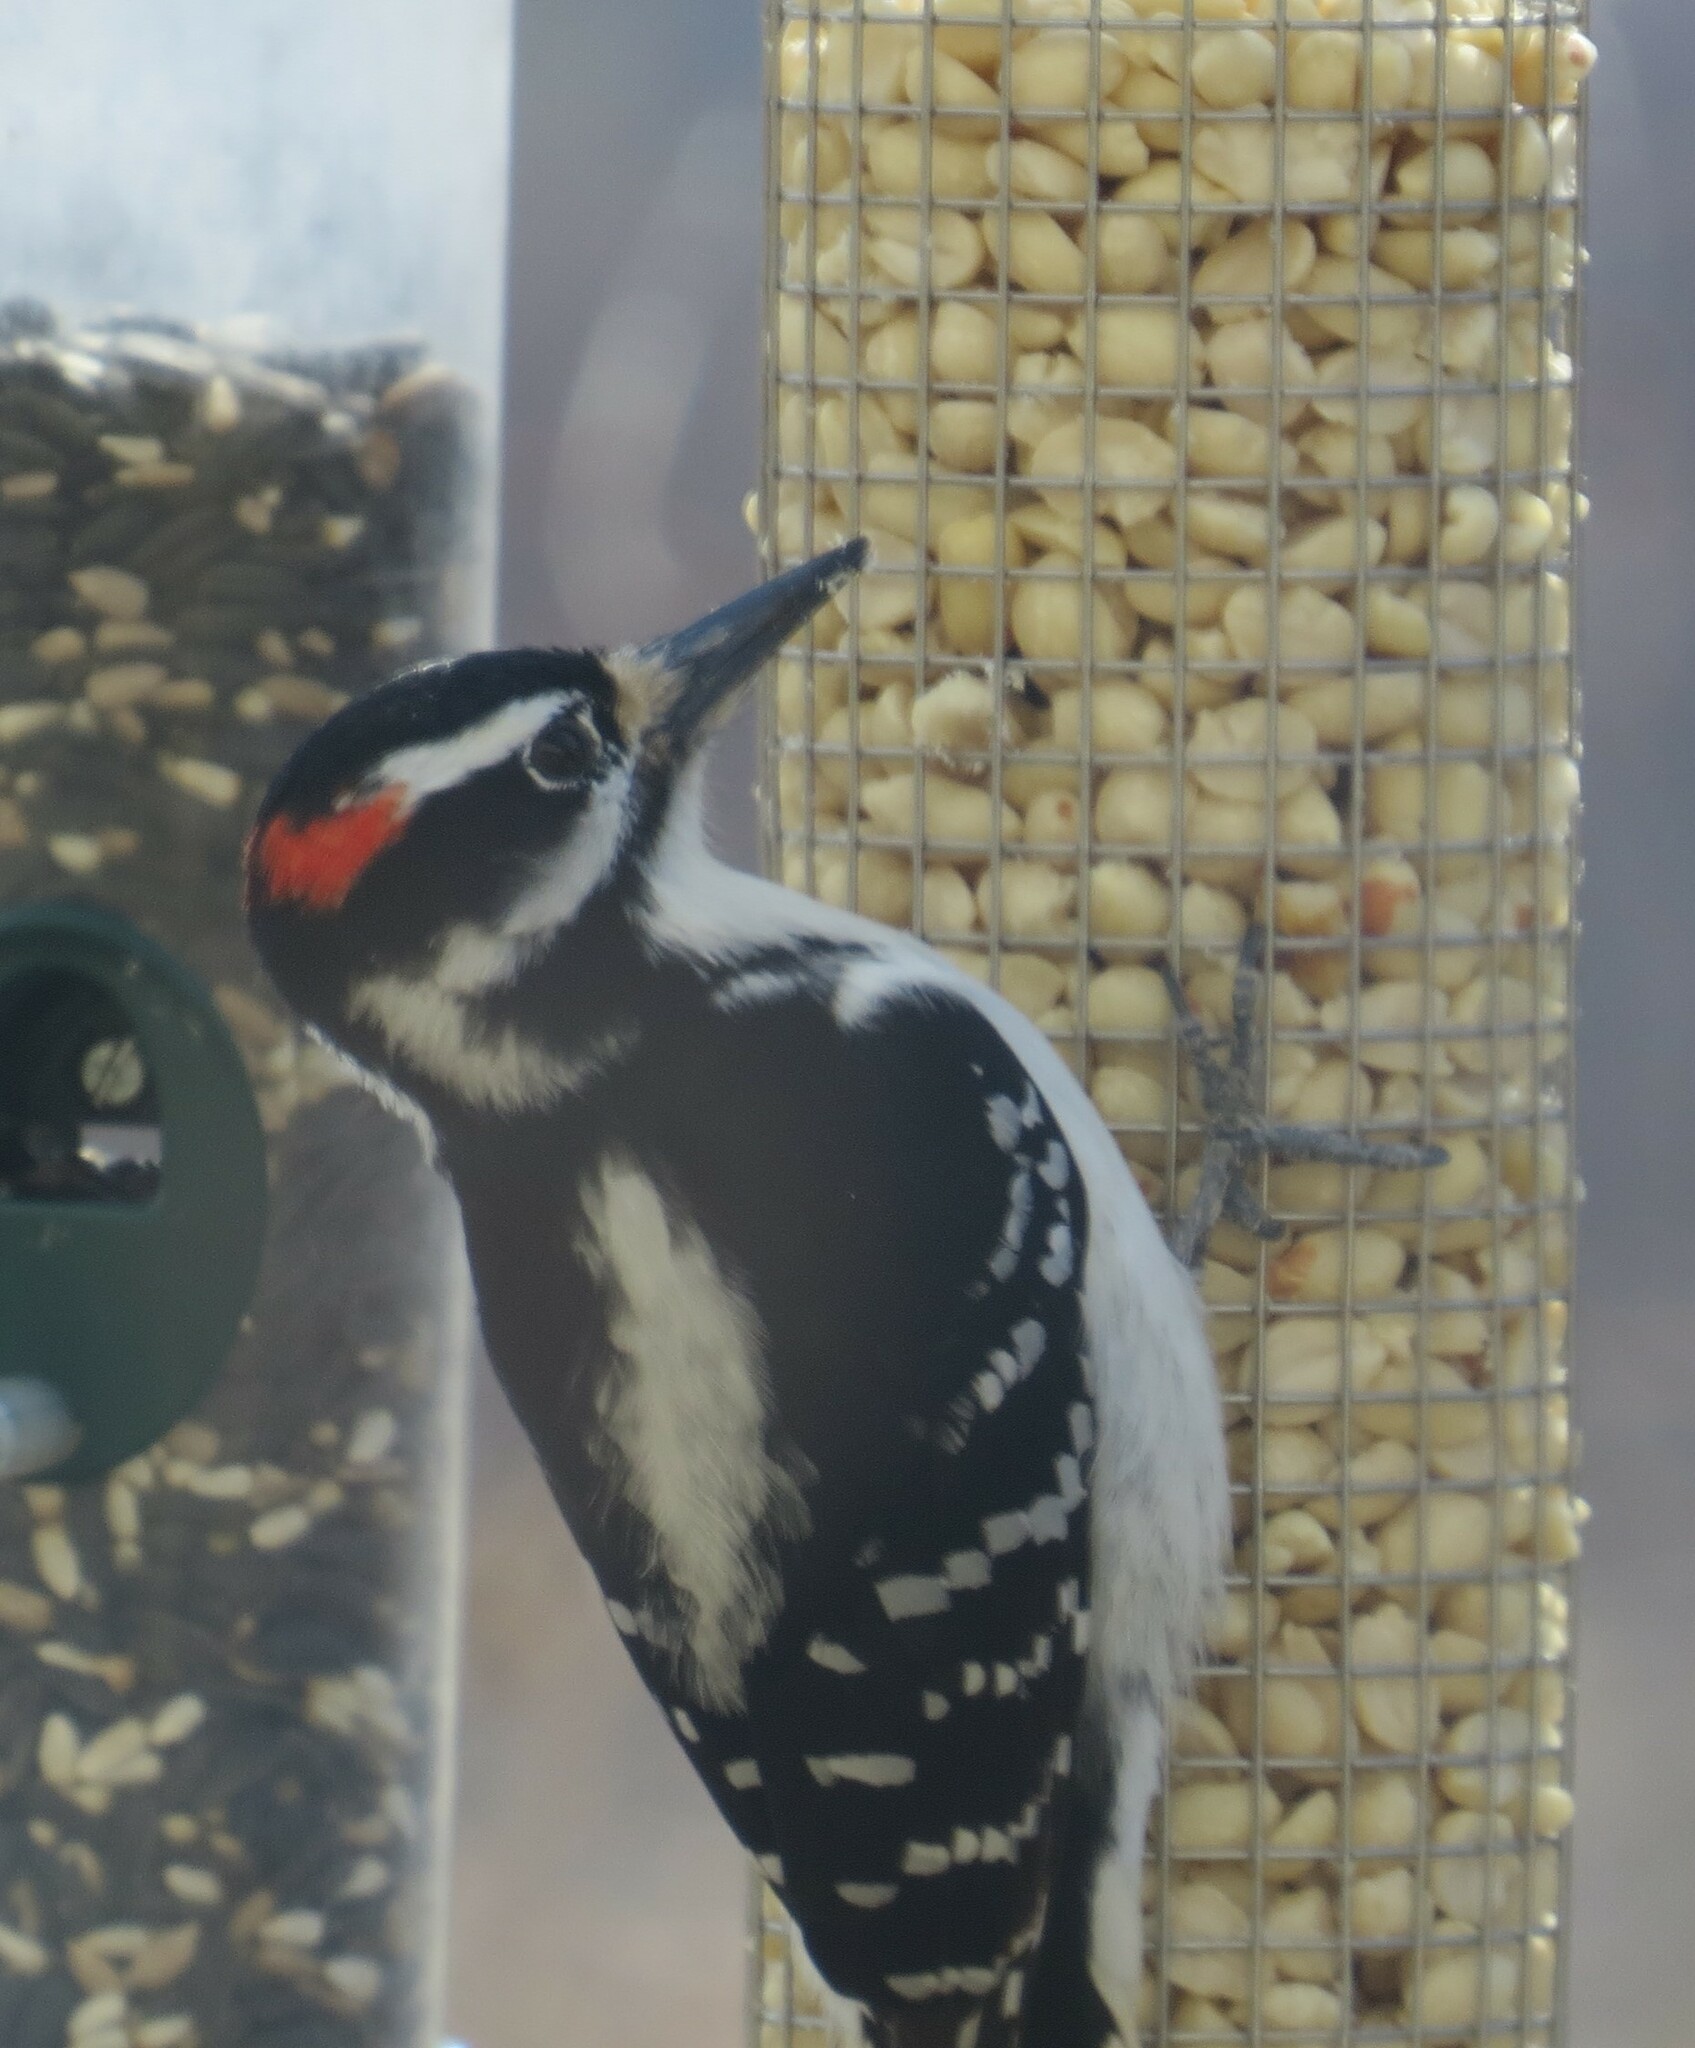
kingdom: Animalia
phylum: Chordata
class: Aves
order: Piciformes
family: Picidae
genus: Leuconotopicus
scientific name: Leuconotopicus villosus
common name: Hairy woodpecker
